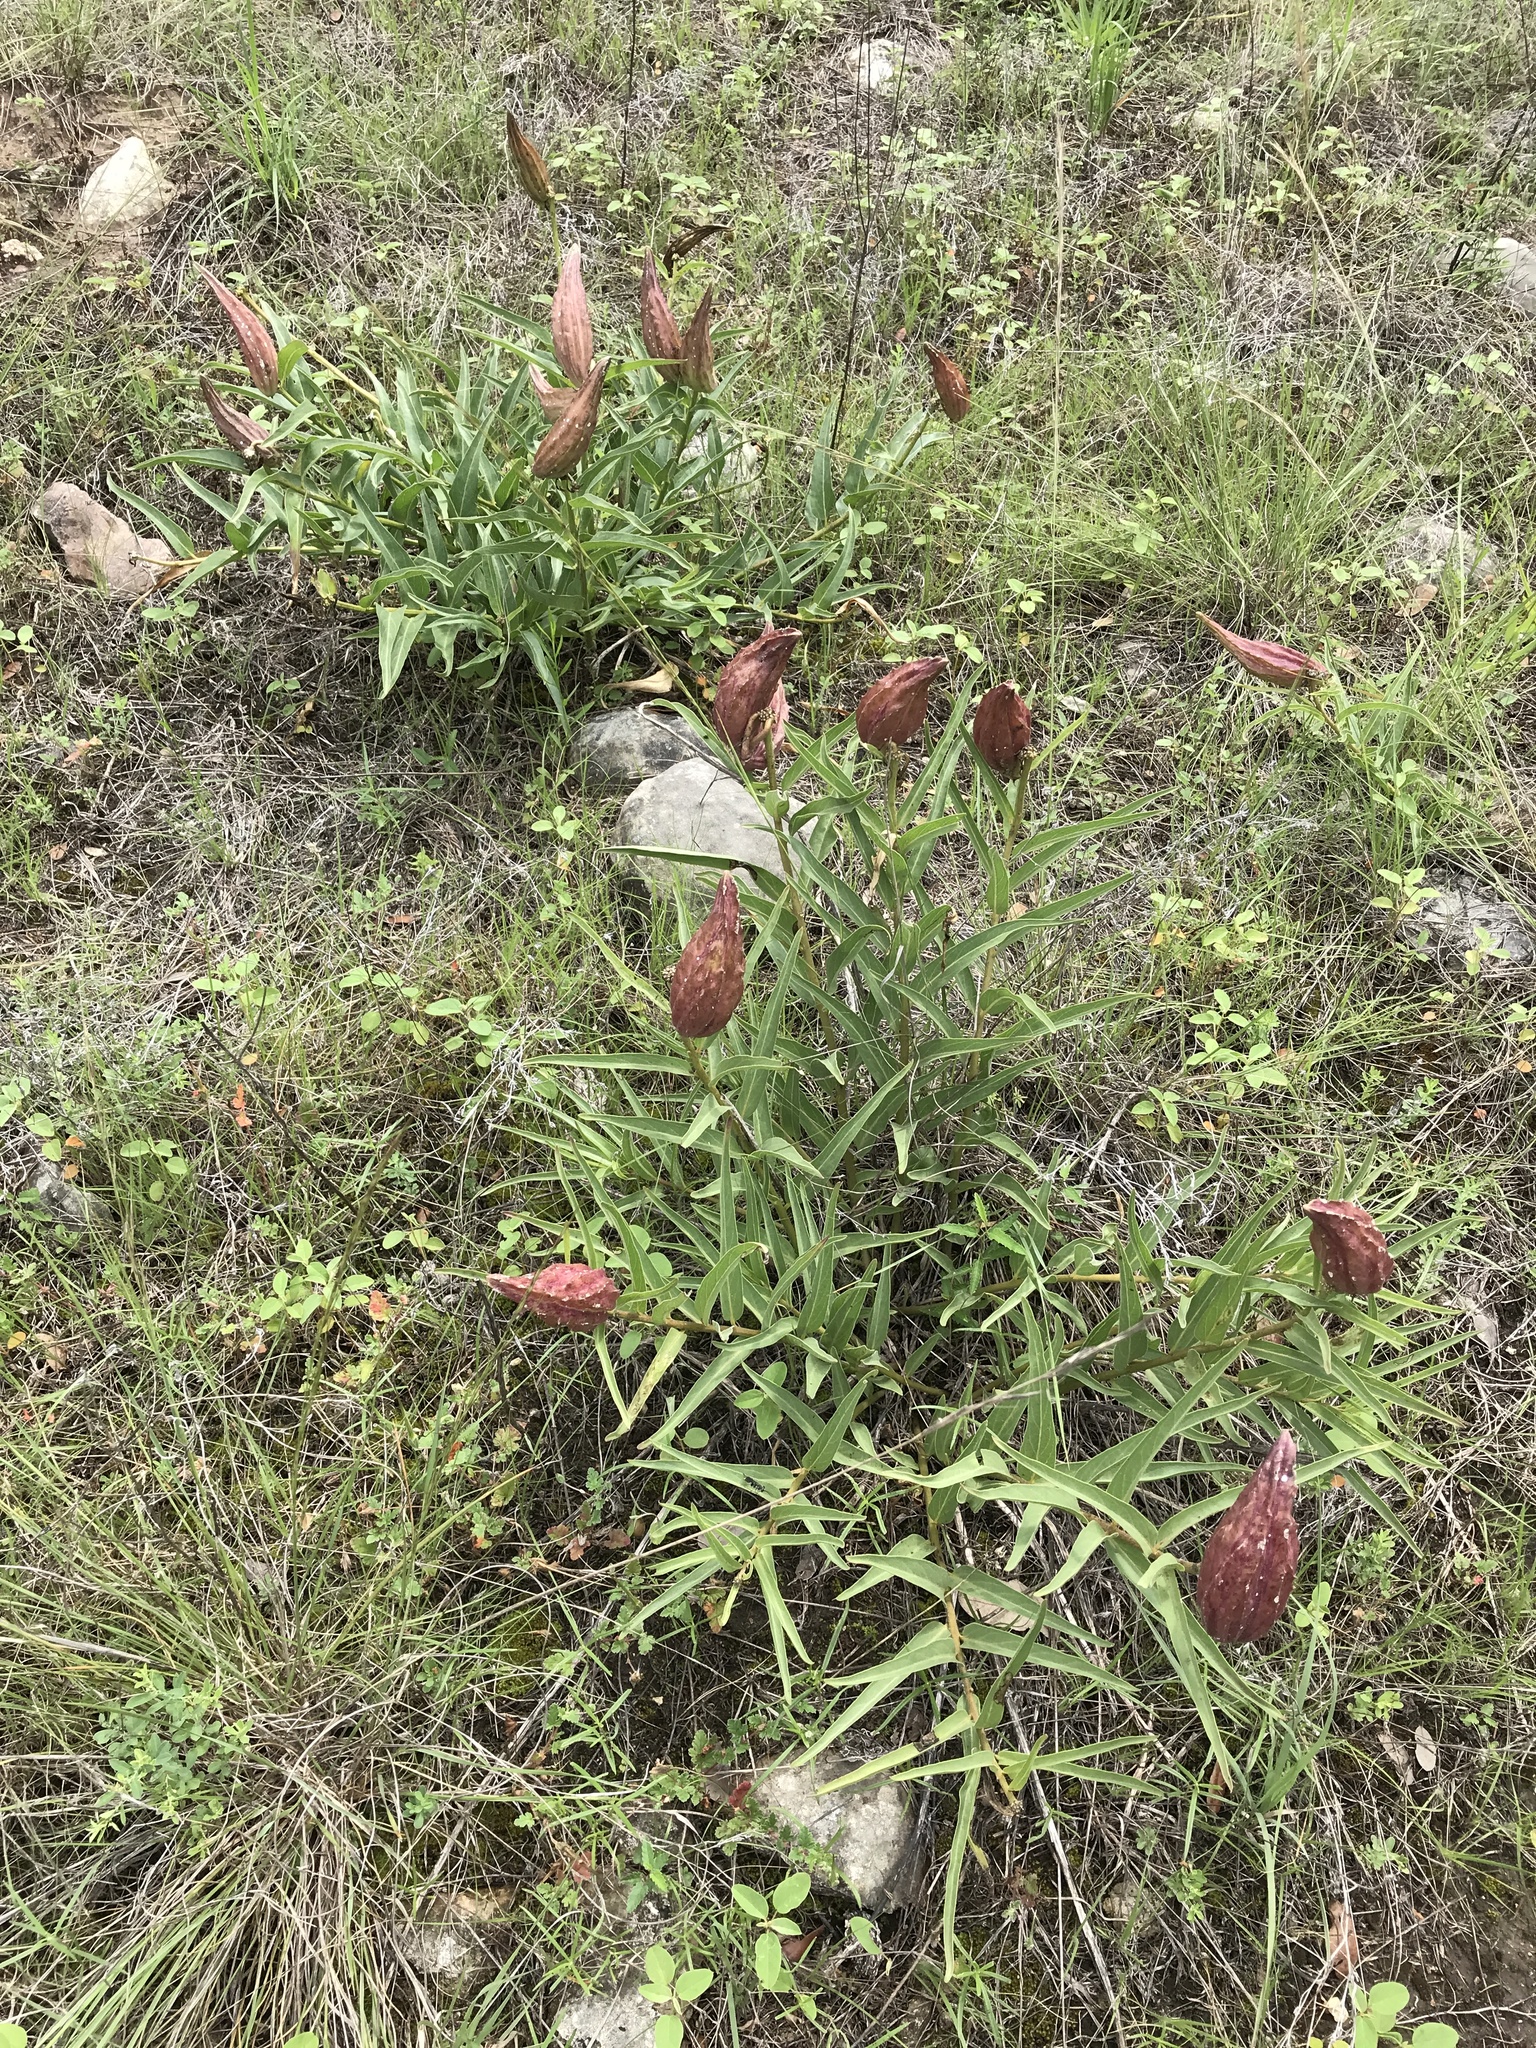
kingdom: Plantae
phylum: Tracheophyta
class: Magnoliopsida
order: Gentianales
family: Apocynaceae
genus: Asclepias
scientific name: Asclepias asperula
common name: Antelope horns
